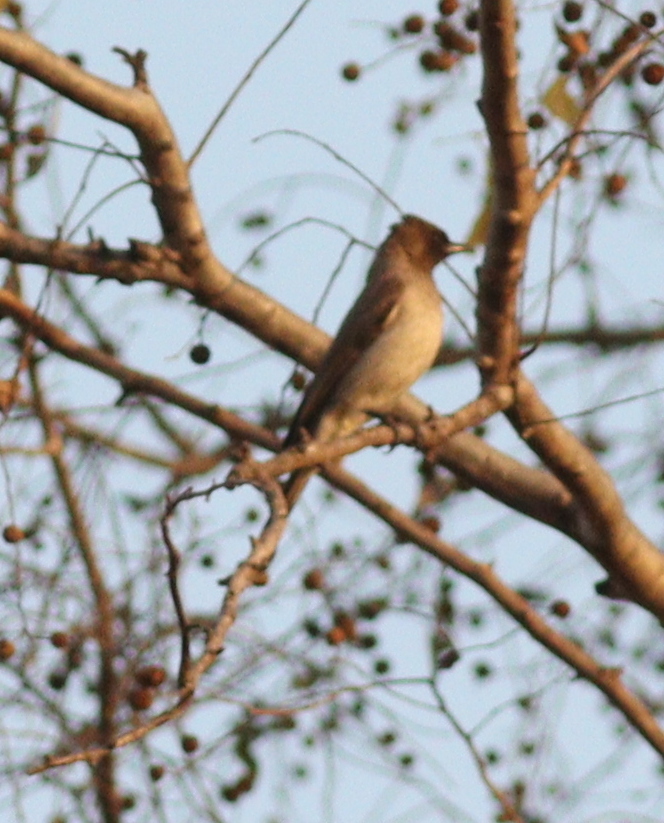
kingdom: Animalia
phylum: Chordata
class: Aves
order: Passeriformes
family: Pycnonotidae
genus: Pycnonotus
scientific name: Pycnonotus barbatus
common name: Common bulbul
